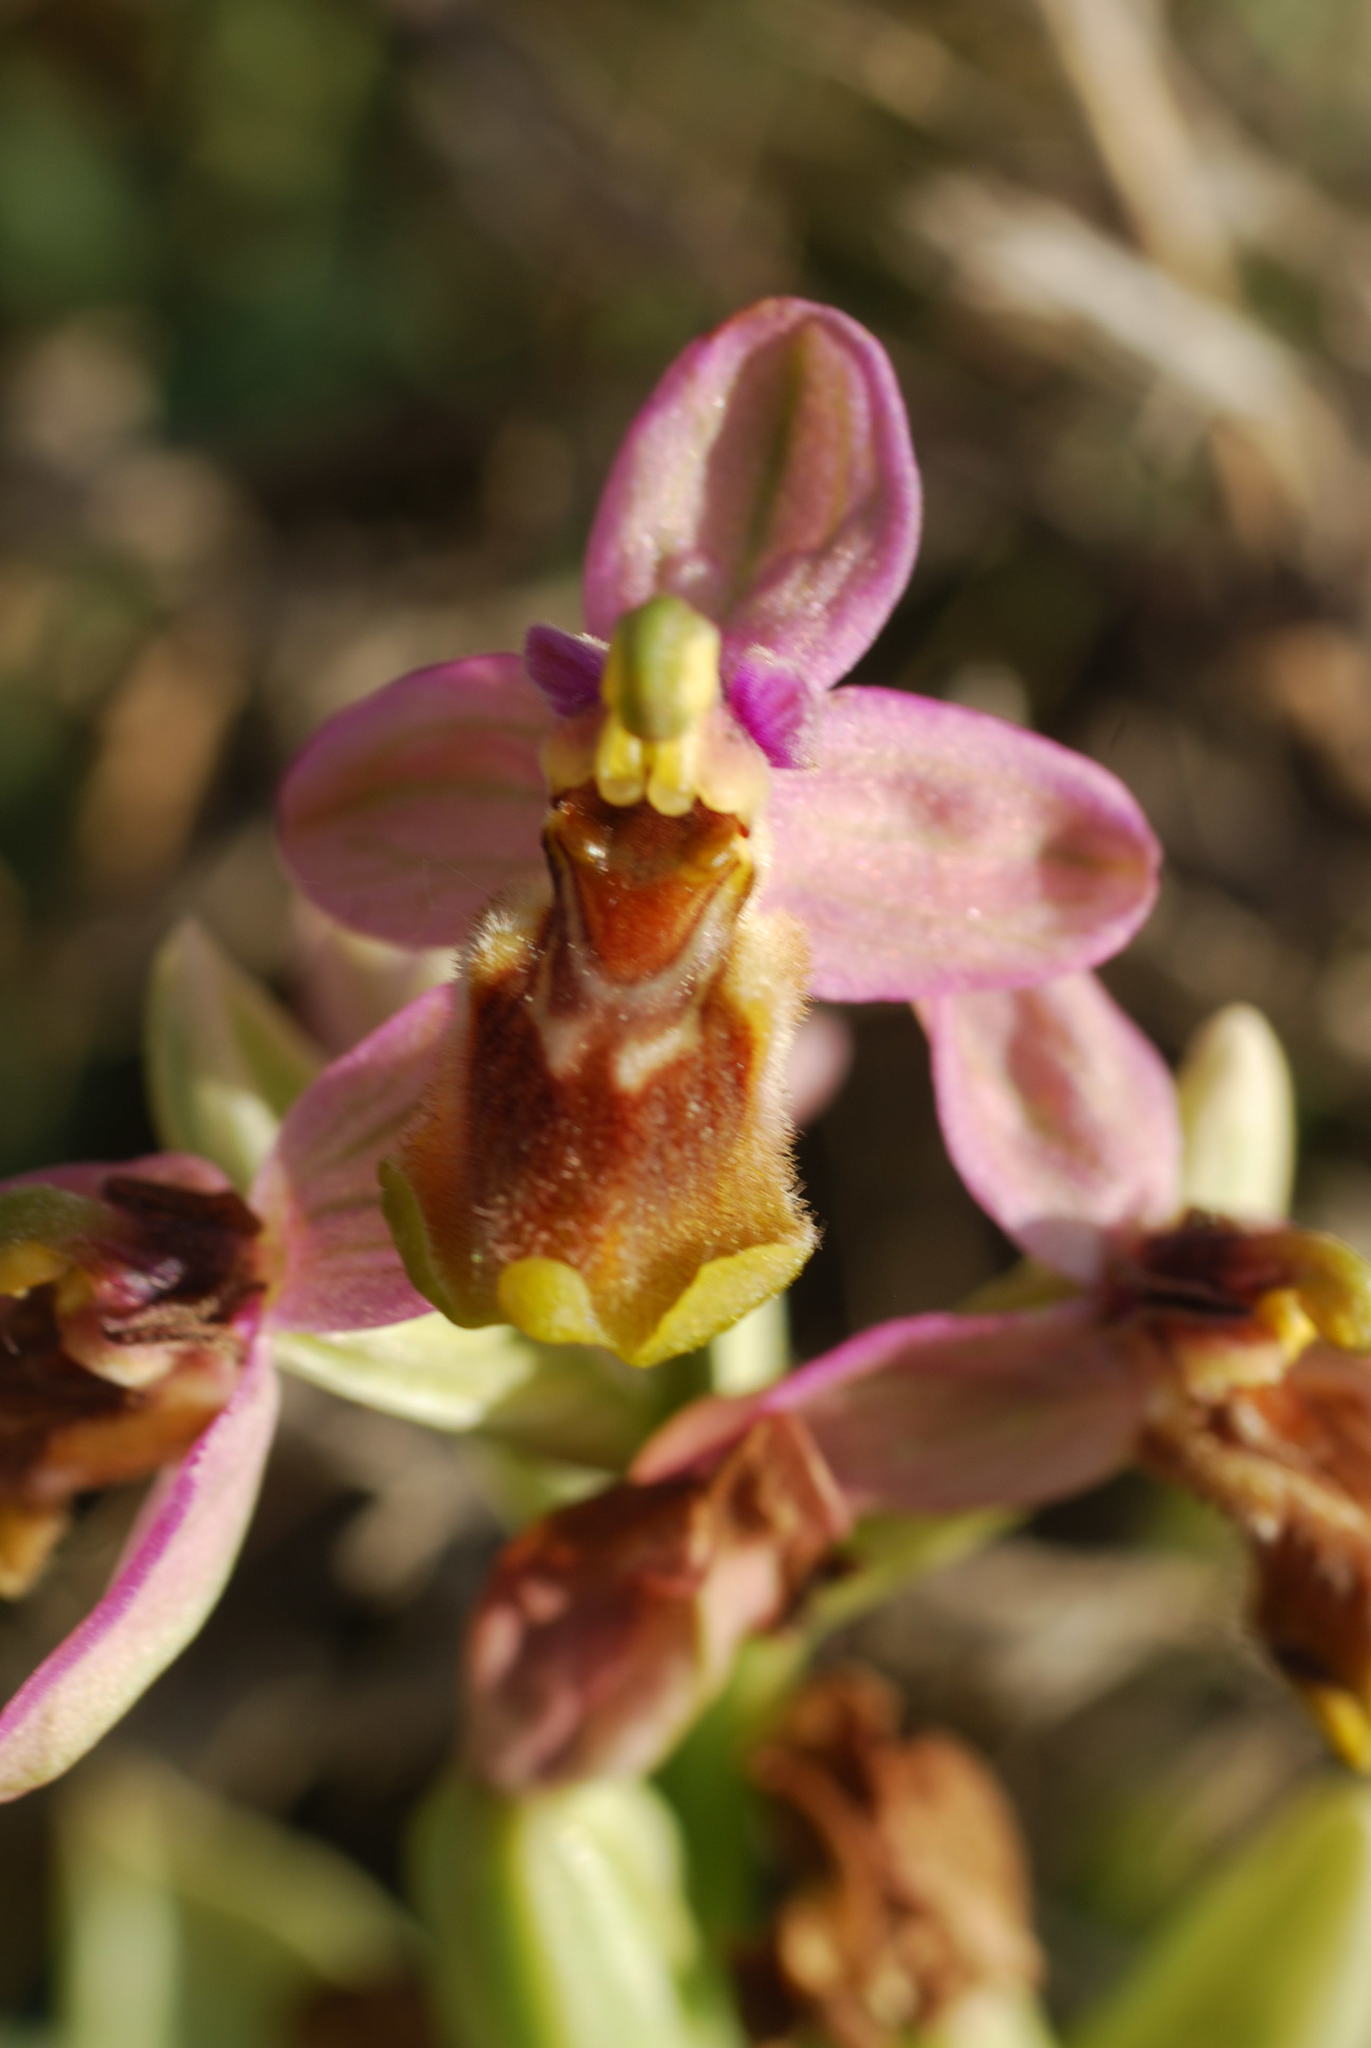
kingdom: Plantae
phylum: Tracheophyta
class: Liliopsida
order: Asparagales
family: Orchidaceae
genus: Ophrys
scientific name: Ophrys tenthredinifera
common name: Sawfly orchid
